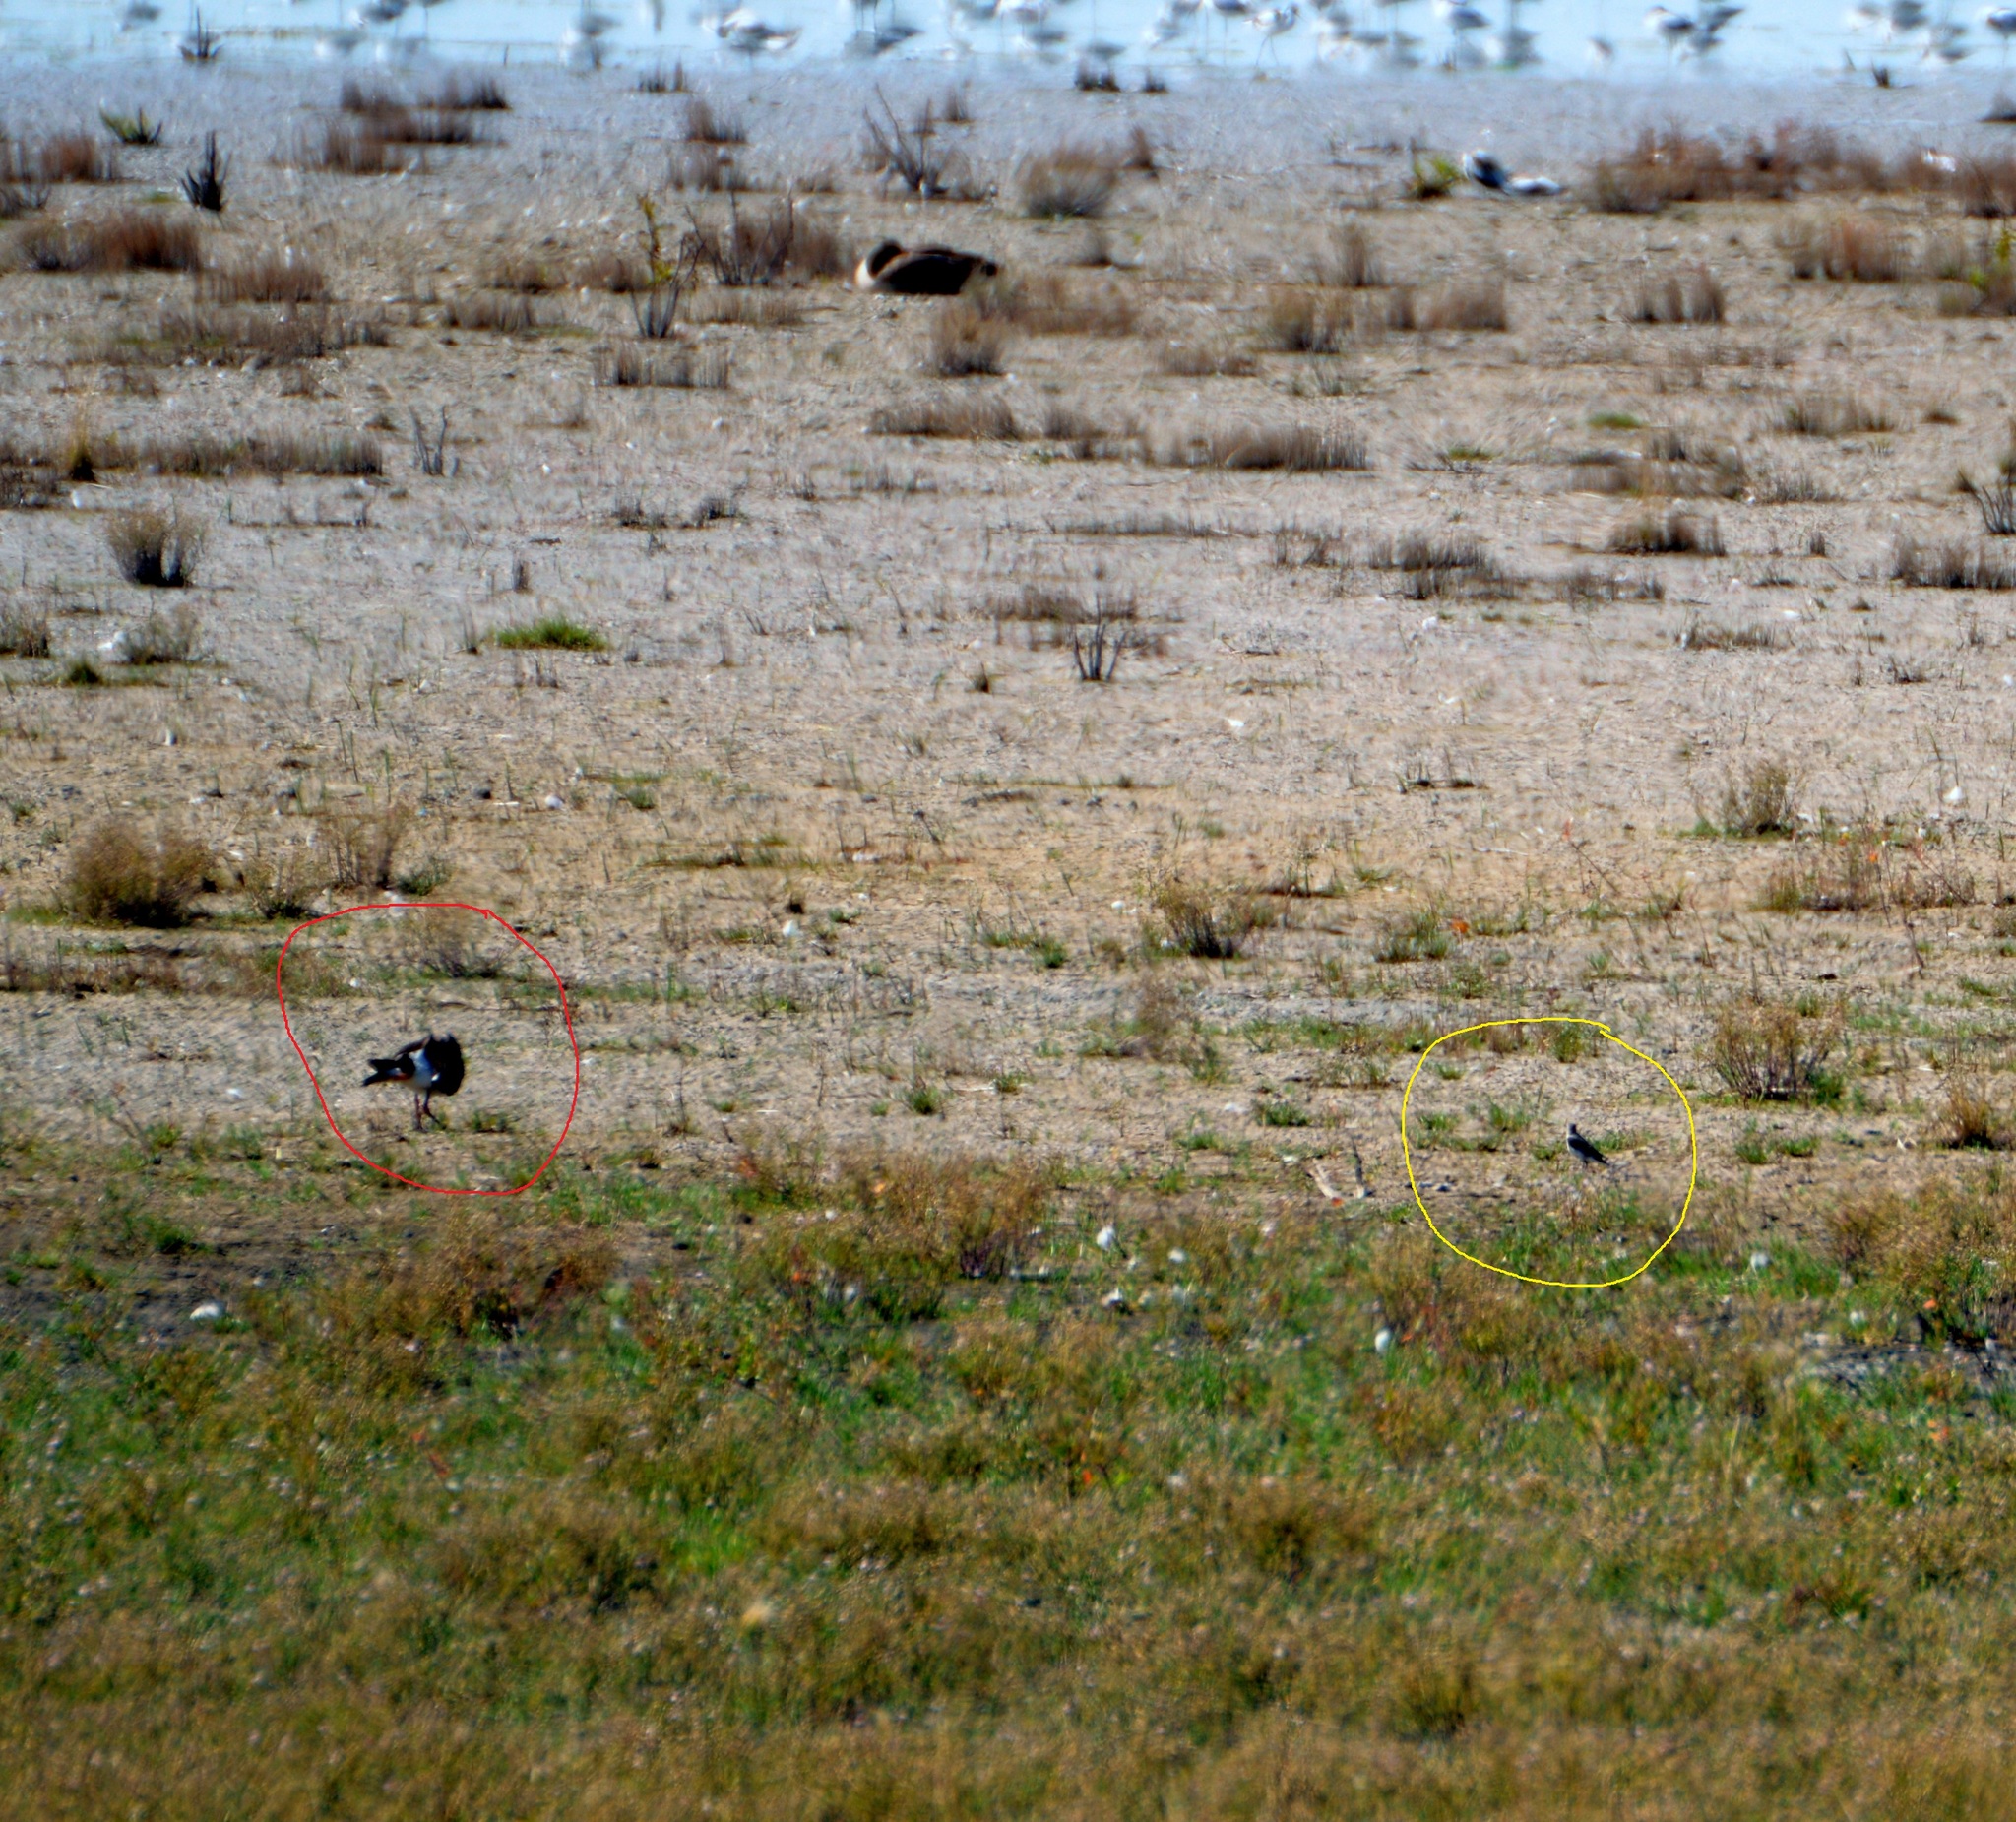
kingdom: Animalia
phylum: Chordata
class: Aves
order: Passeriformes
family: Muscicapidae
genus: Oenanthe
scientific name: Oenanthe oenanthe
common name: Northern wheatear
